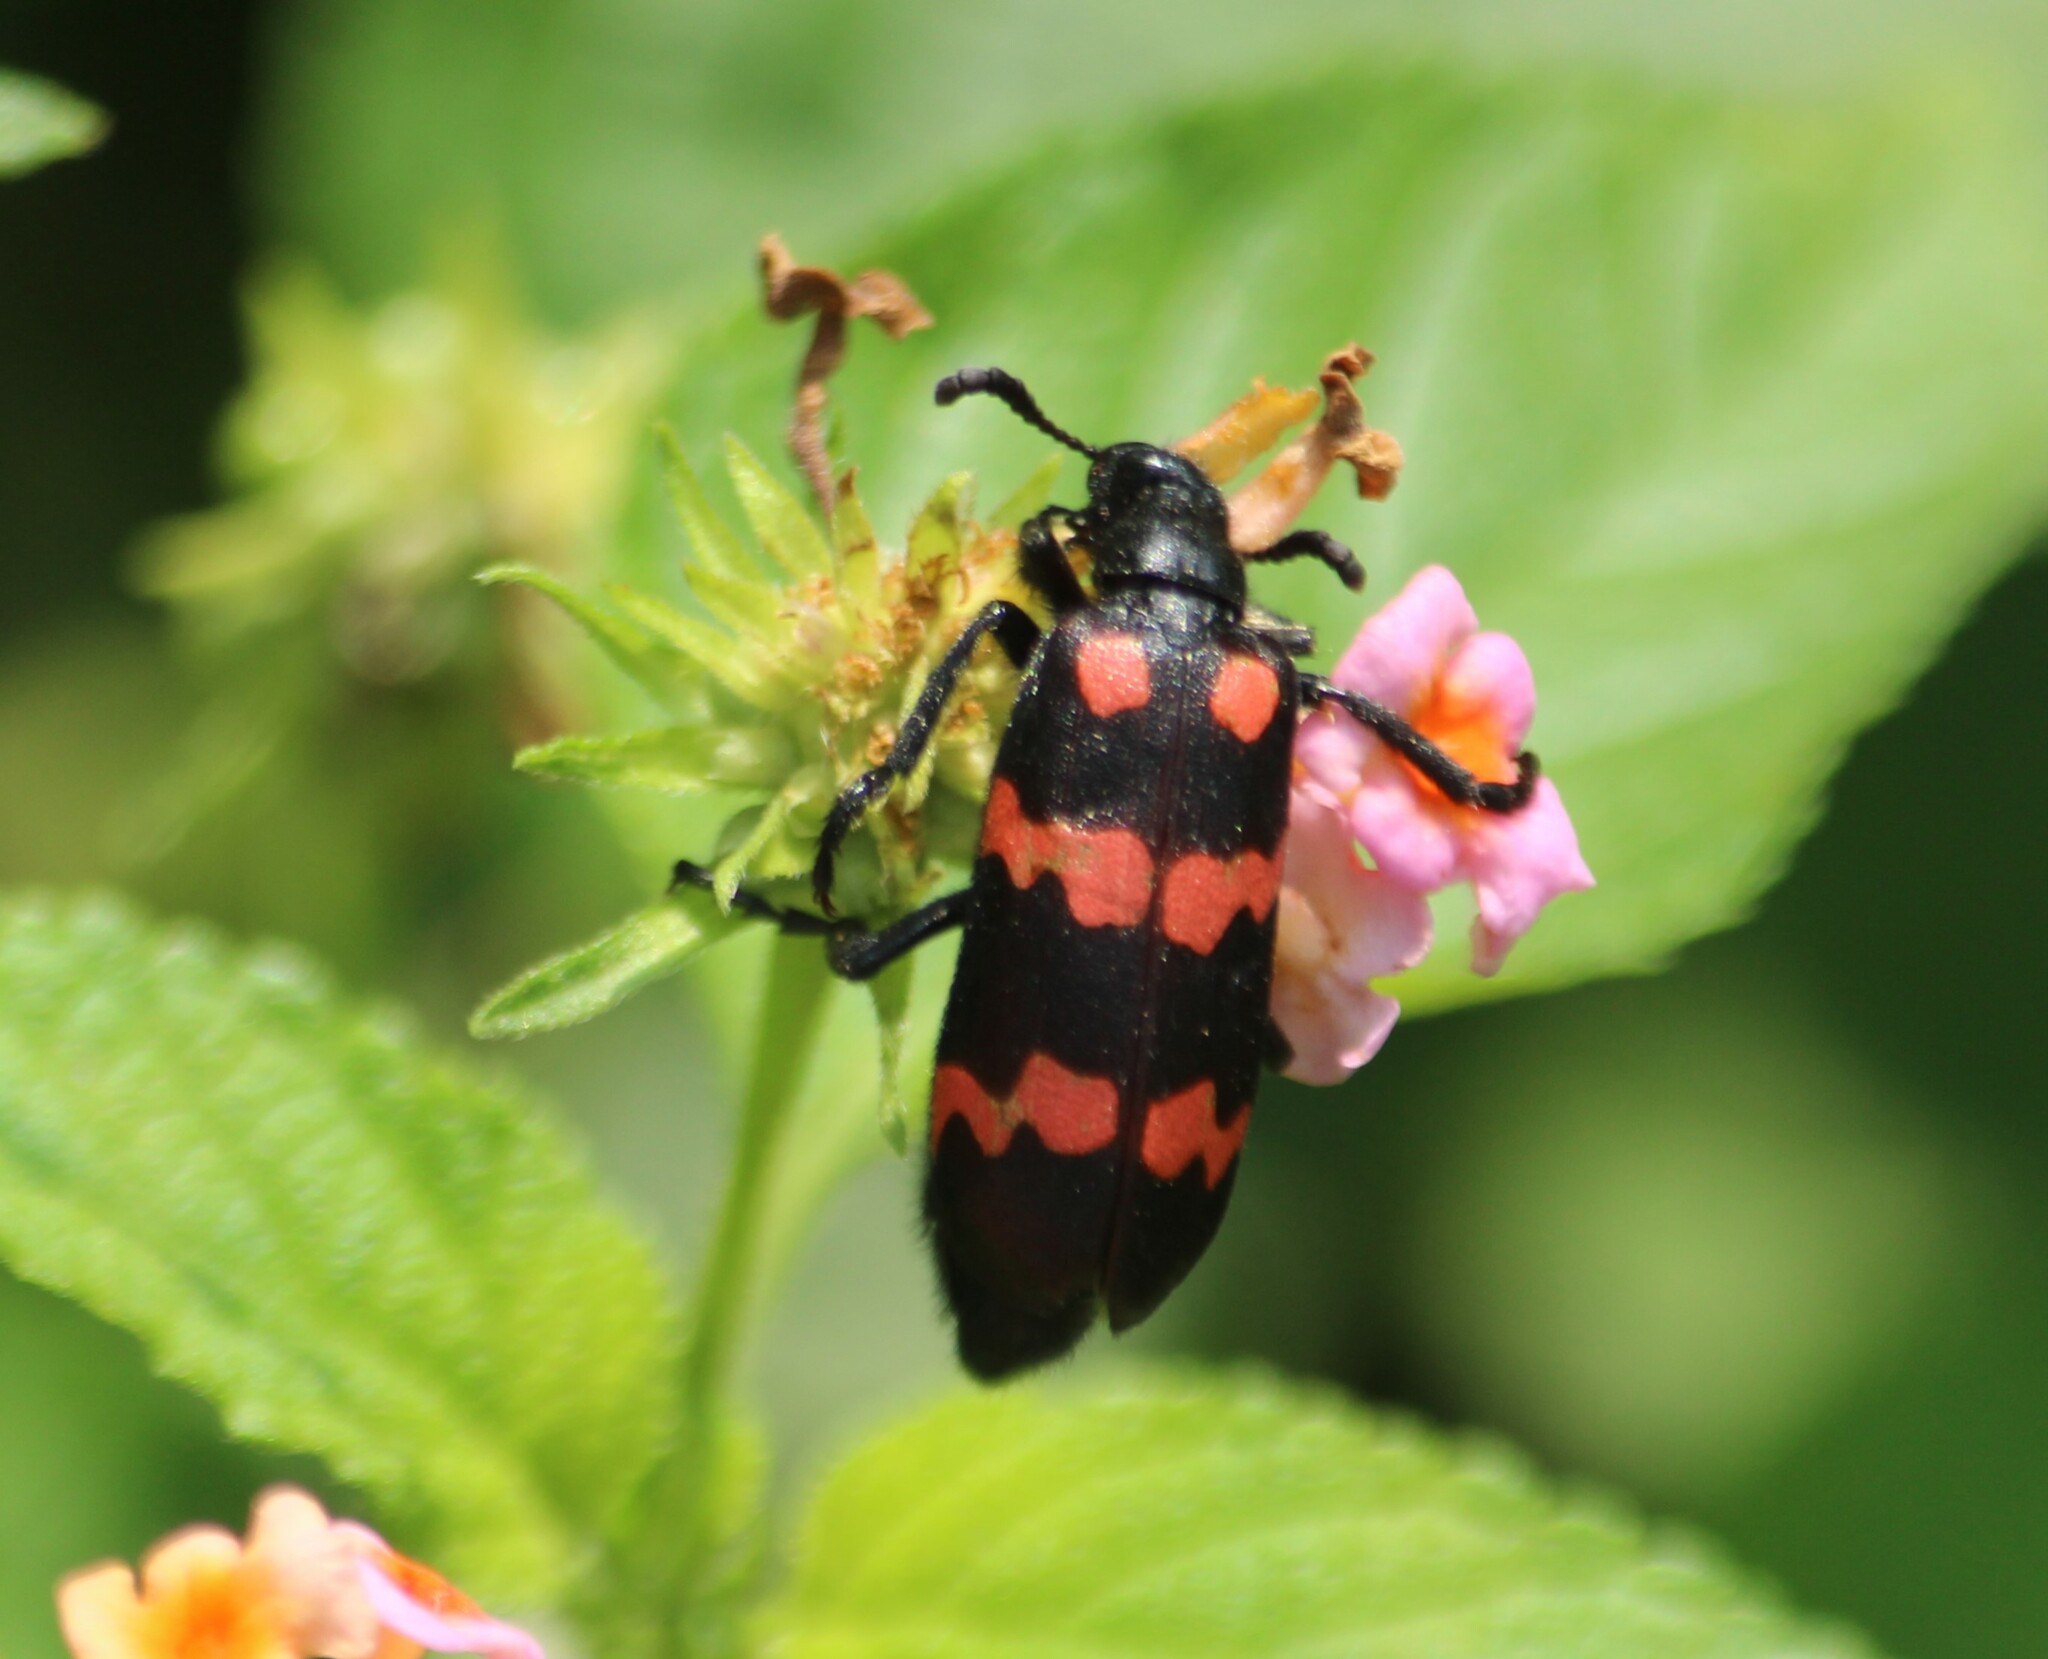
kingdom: Animalia
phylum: Arthropoda
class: Insecta
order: Coleoptera
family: Meloidae
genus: Hycleus
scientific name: Hycleus biundulatus
